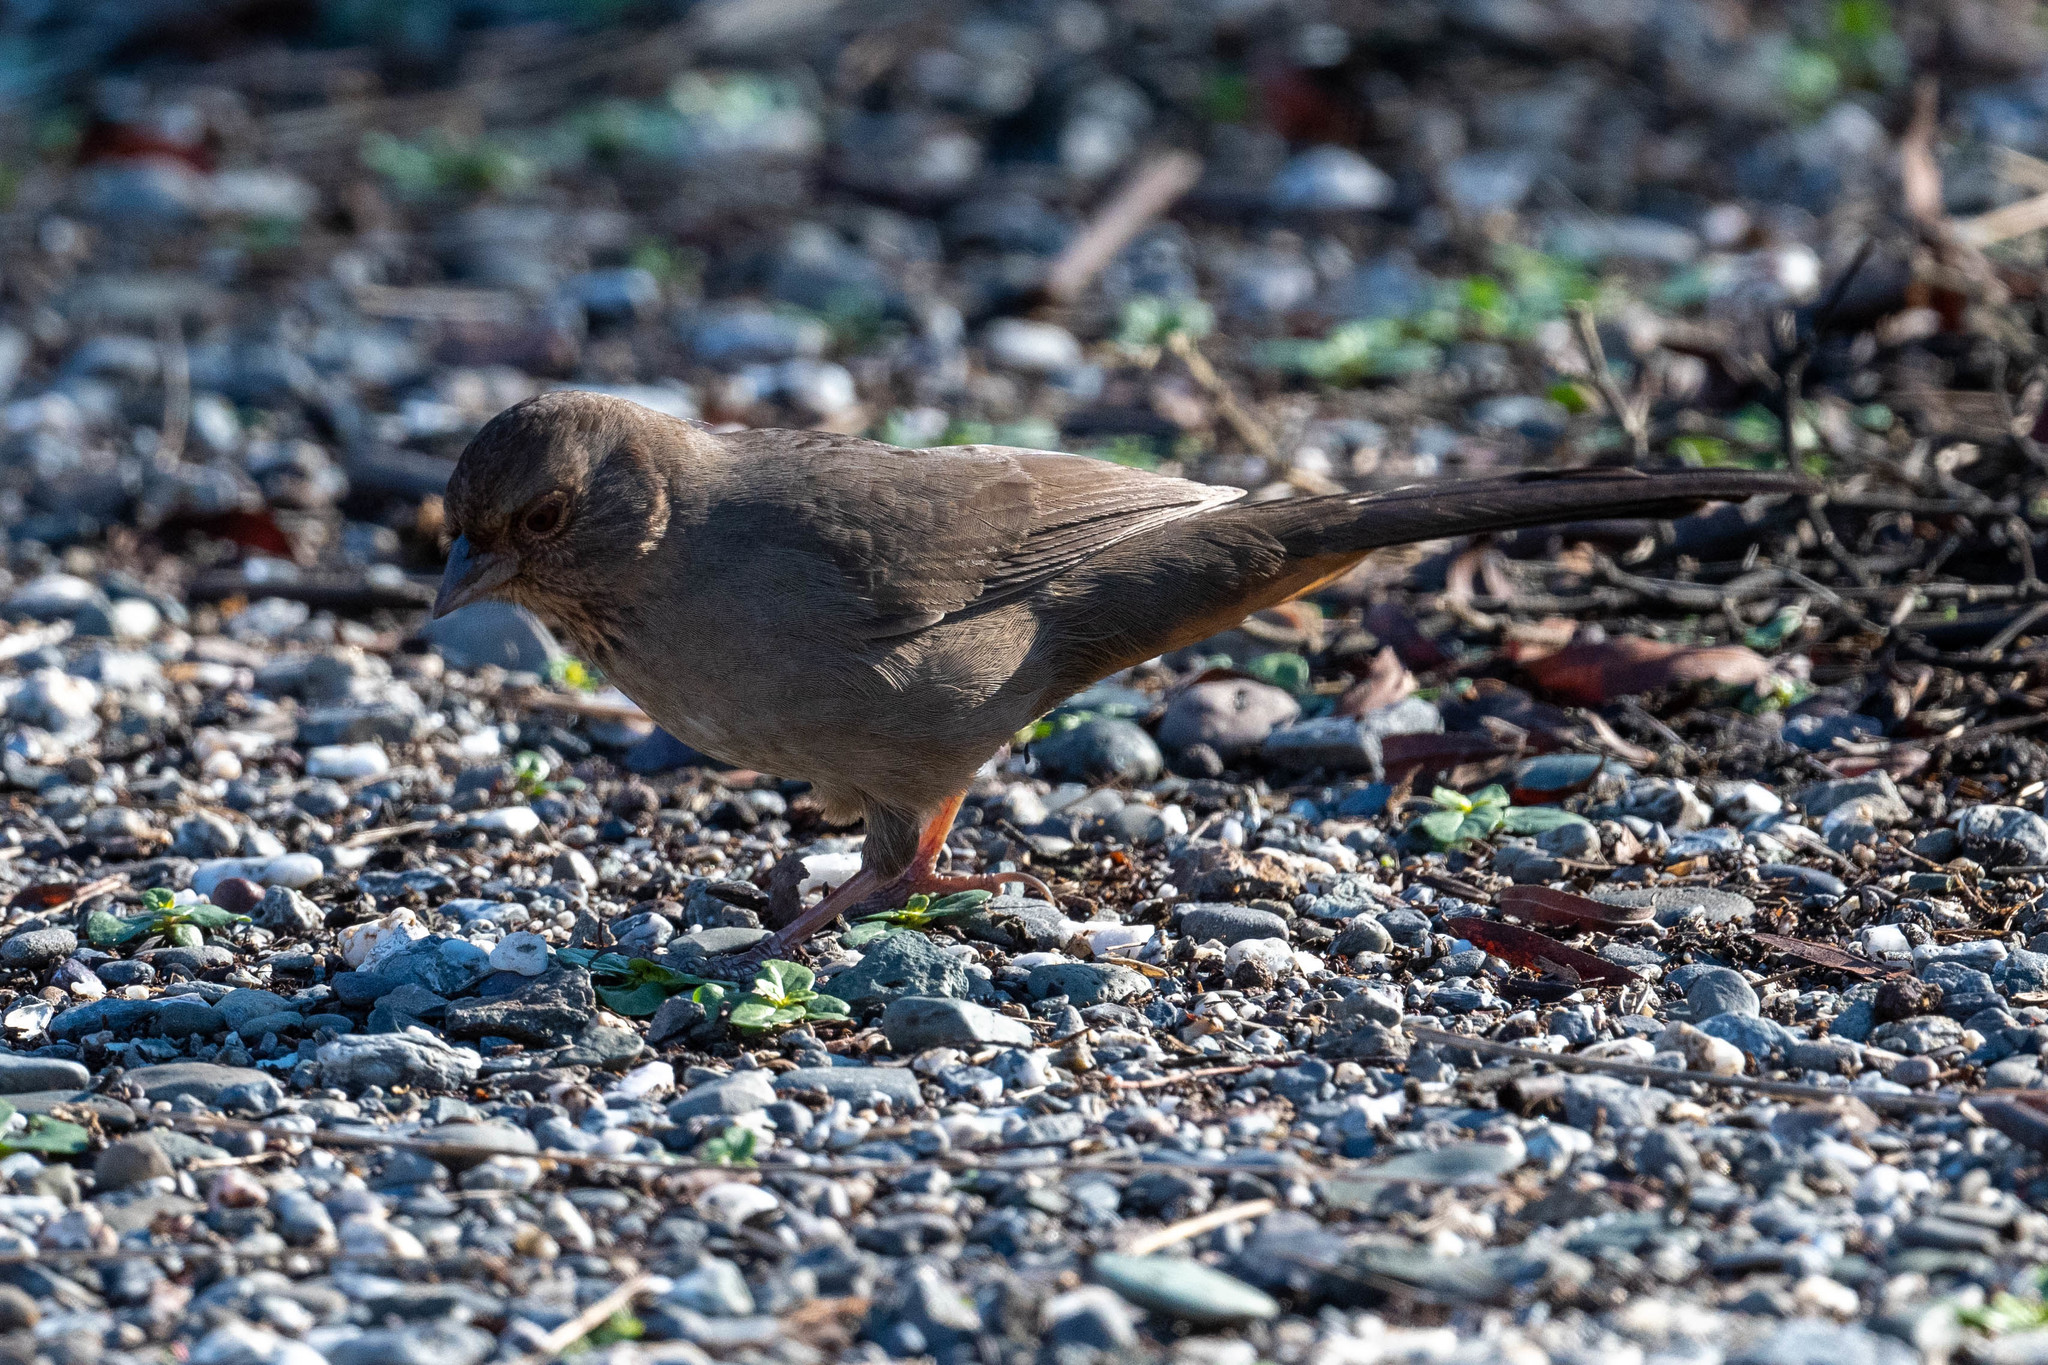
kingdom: Animalia
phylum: Chordata
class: Aves
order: Passeriformes
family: Passerellidae
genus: Melozone
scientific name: Melozone crissalis
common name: California towhee
